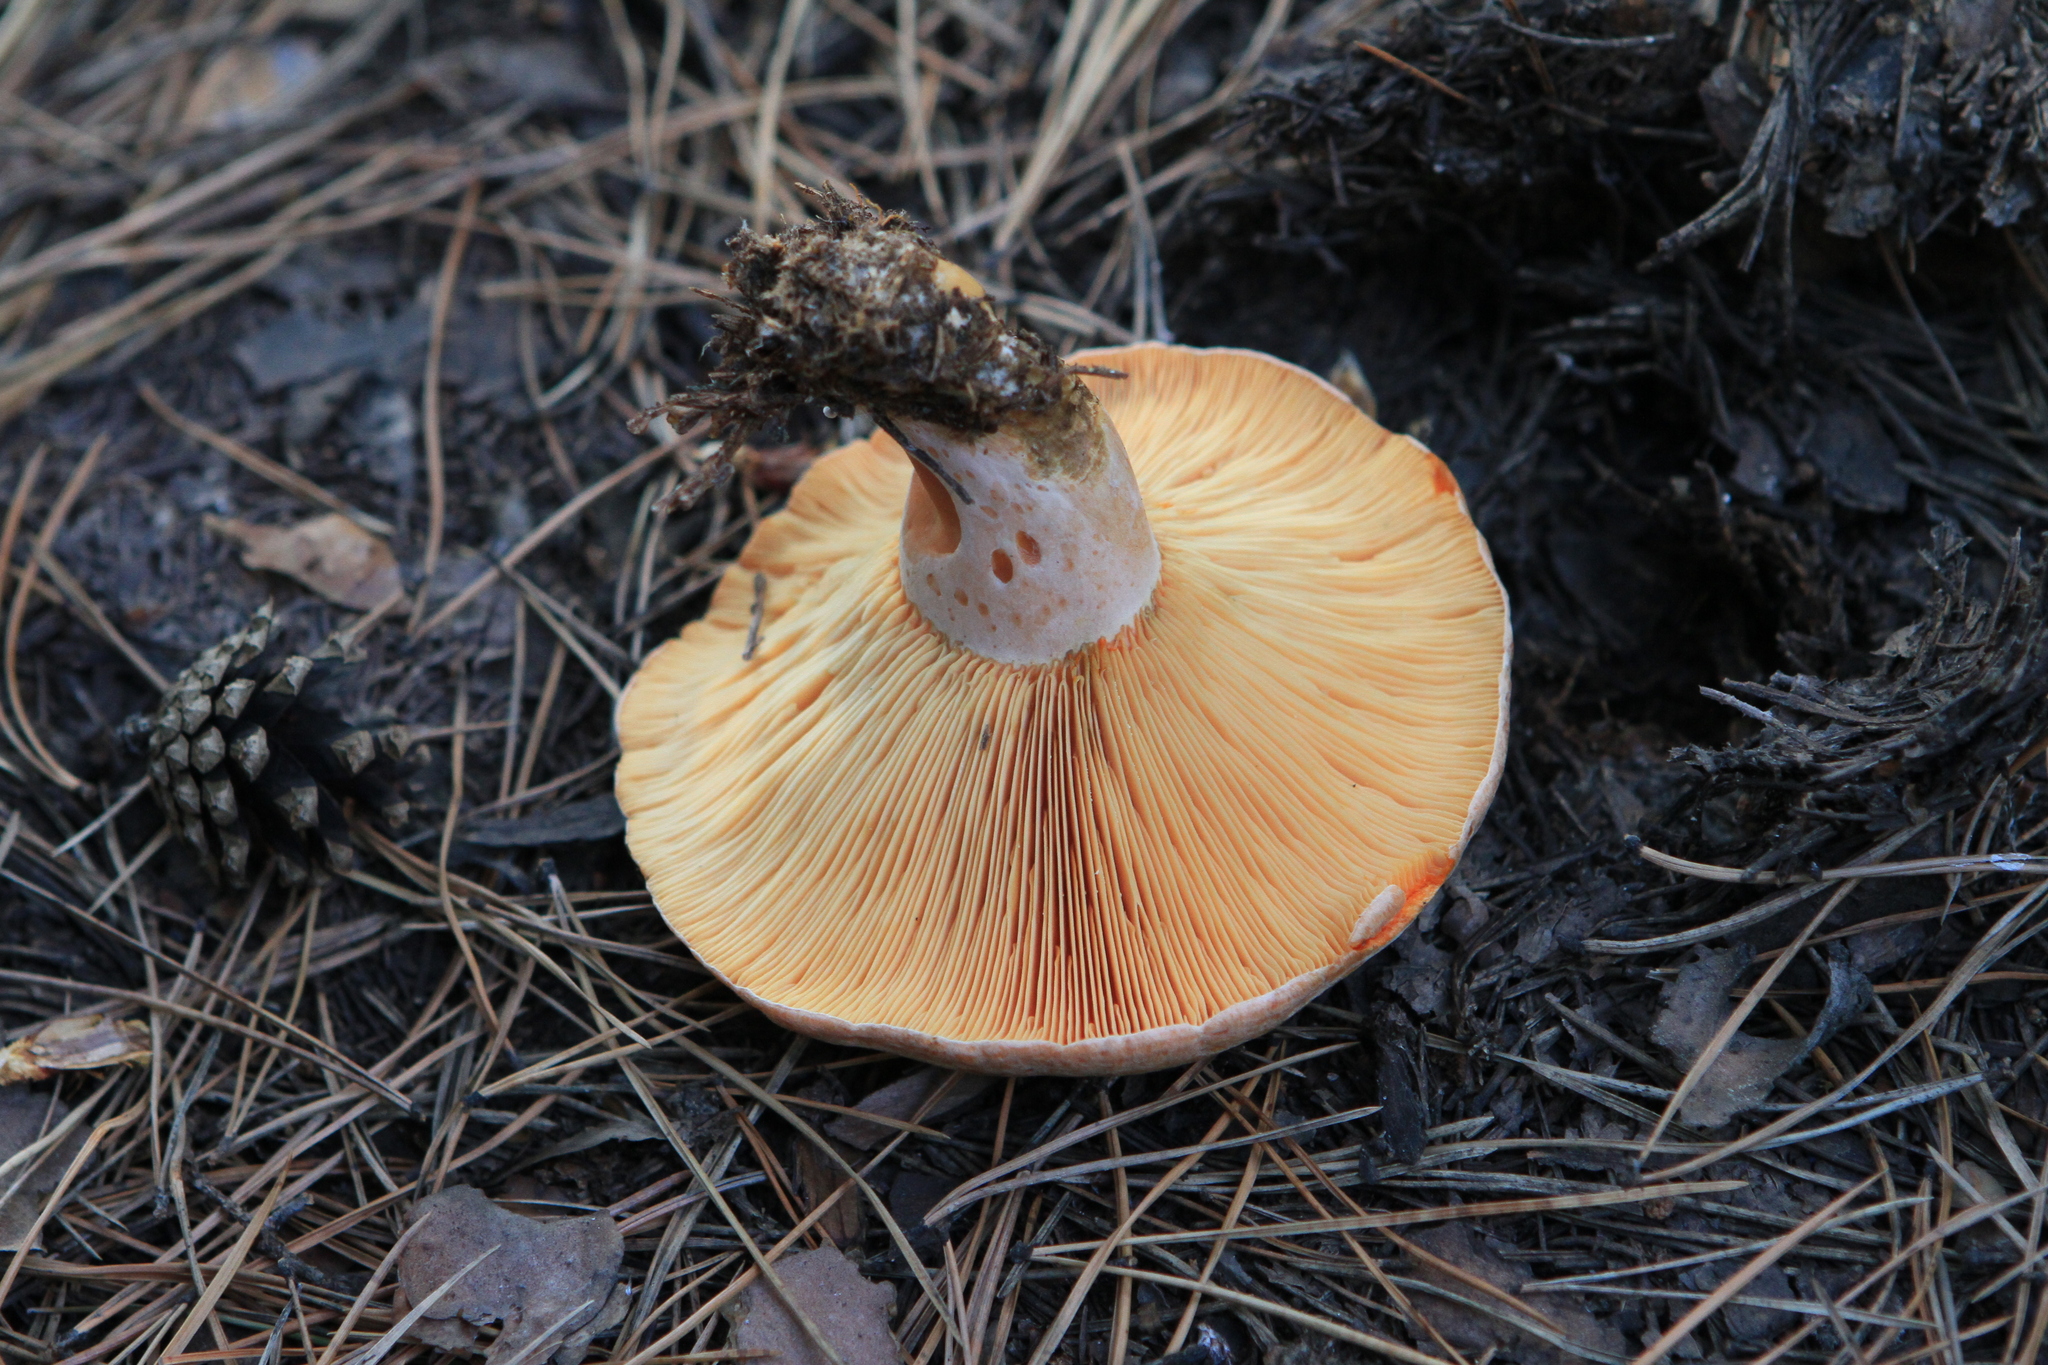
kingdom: Fungi
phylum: Basidiomycota
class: Agaricomycetes
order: Russulales
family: Russulaceae
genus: Lactarius
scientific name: Lactarius deliciosus
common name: Saffron milk-cap
